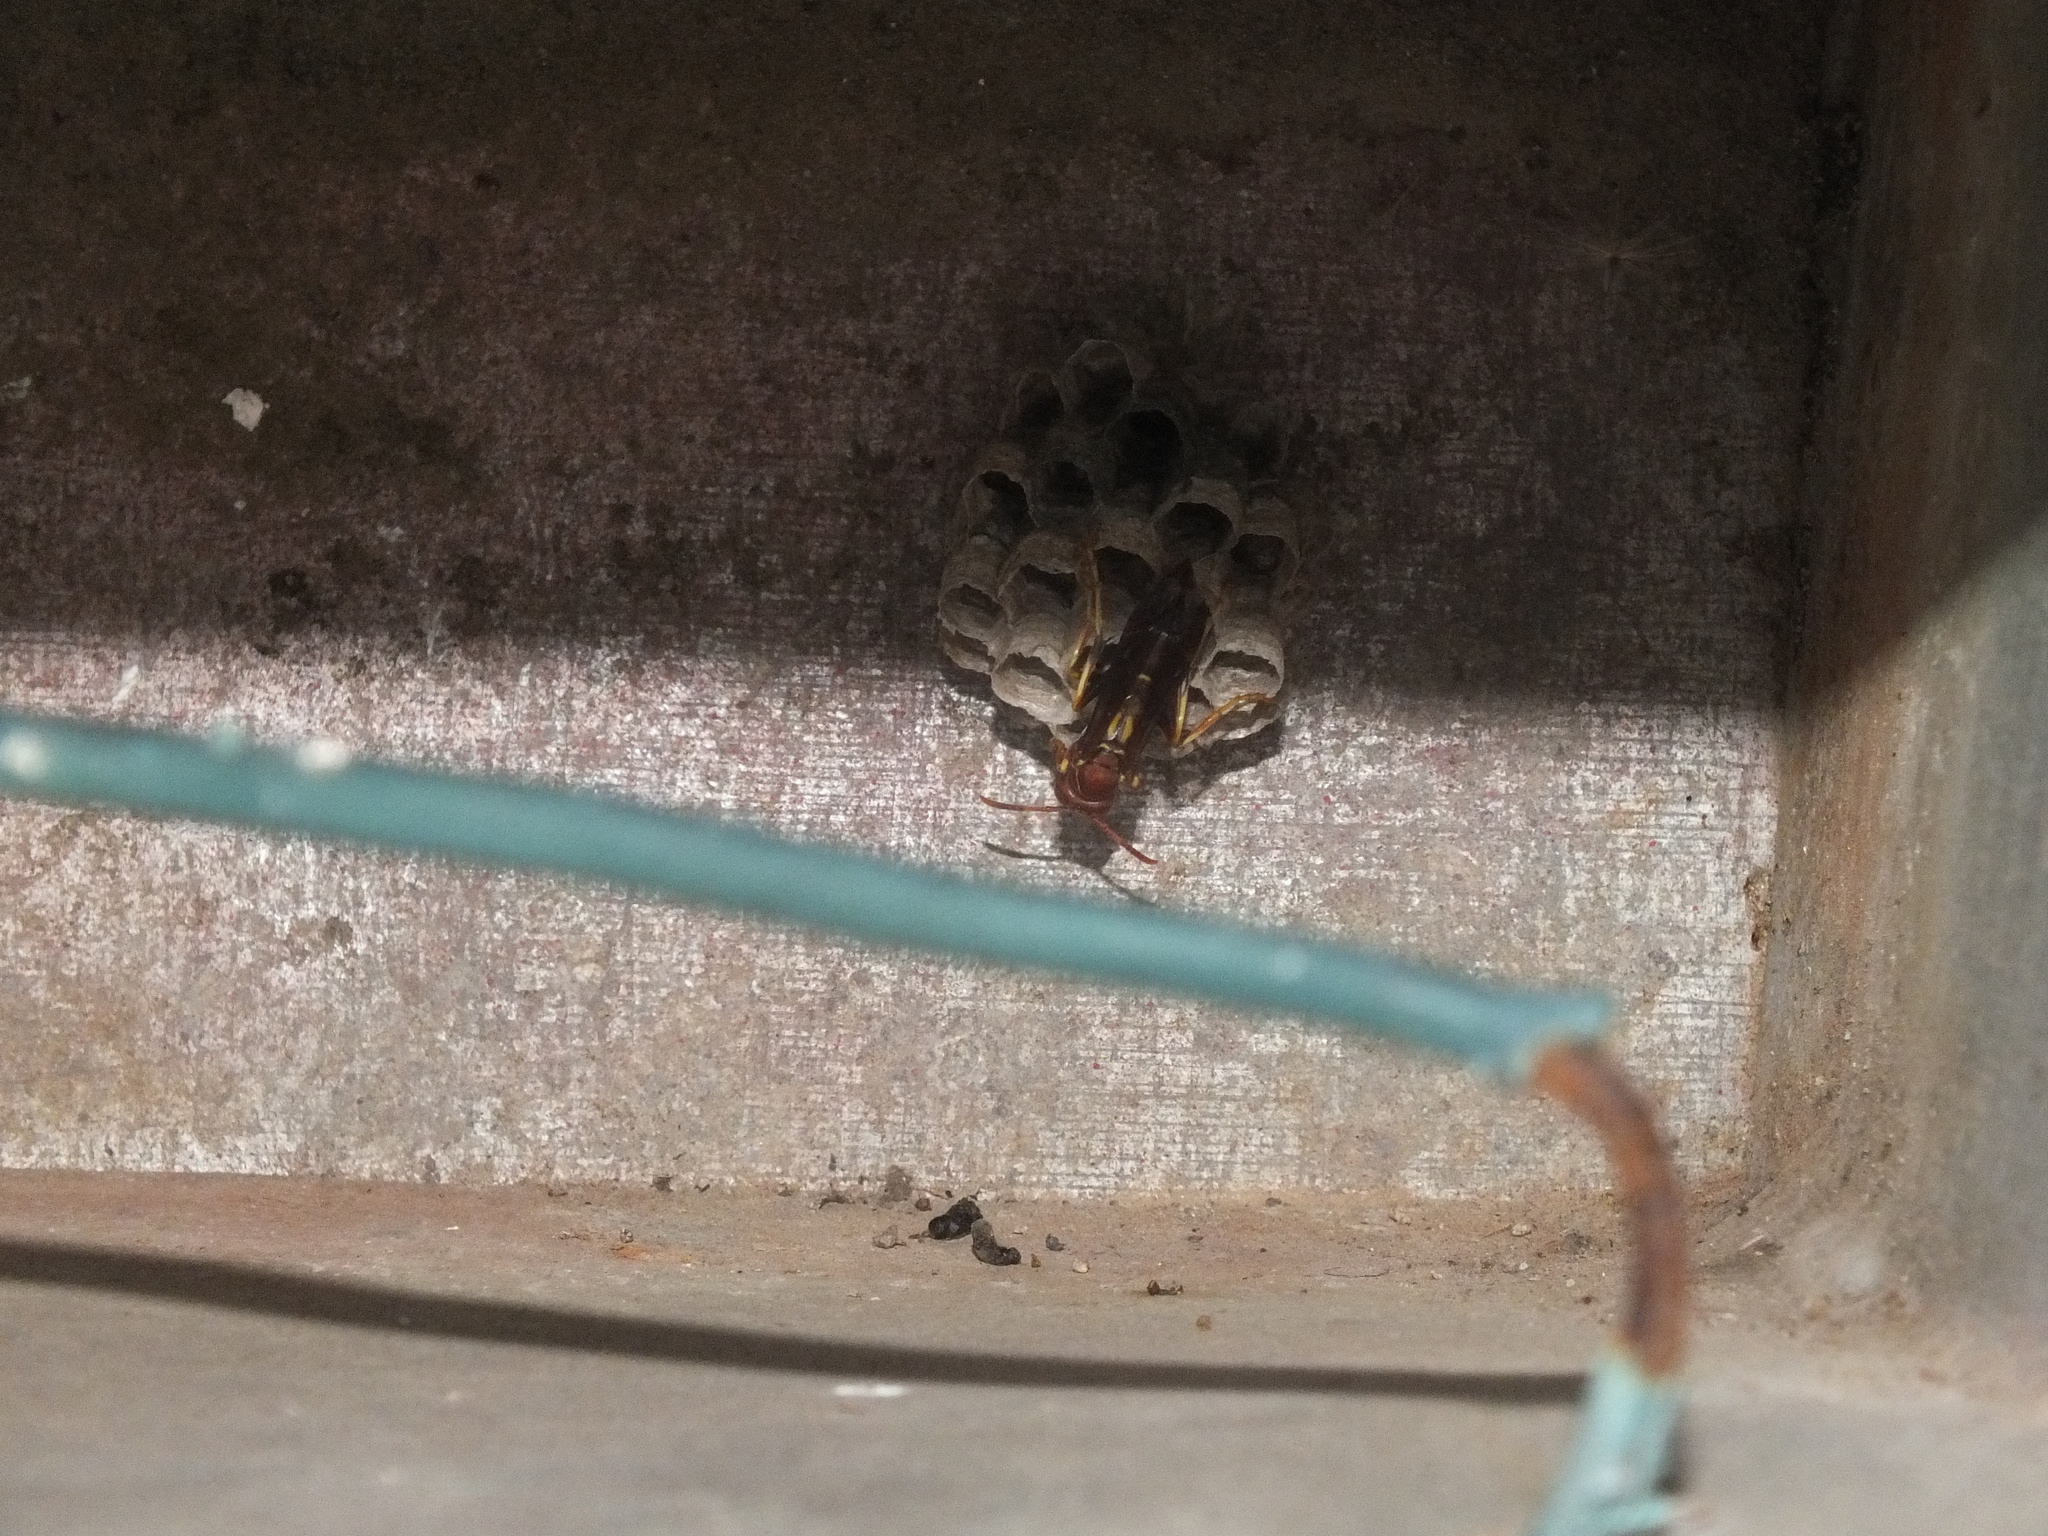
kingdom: Animalia
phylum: Arthropoda
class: Insecta
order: Hymenoptera
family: Eumenidae
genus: Polistes
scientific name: Polistes dorsalis
